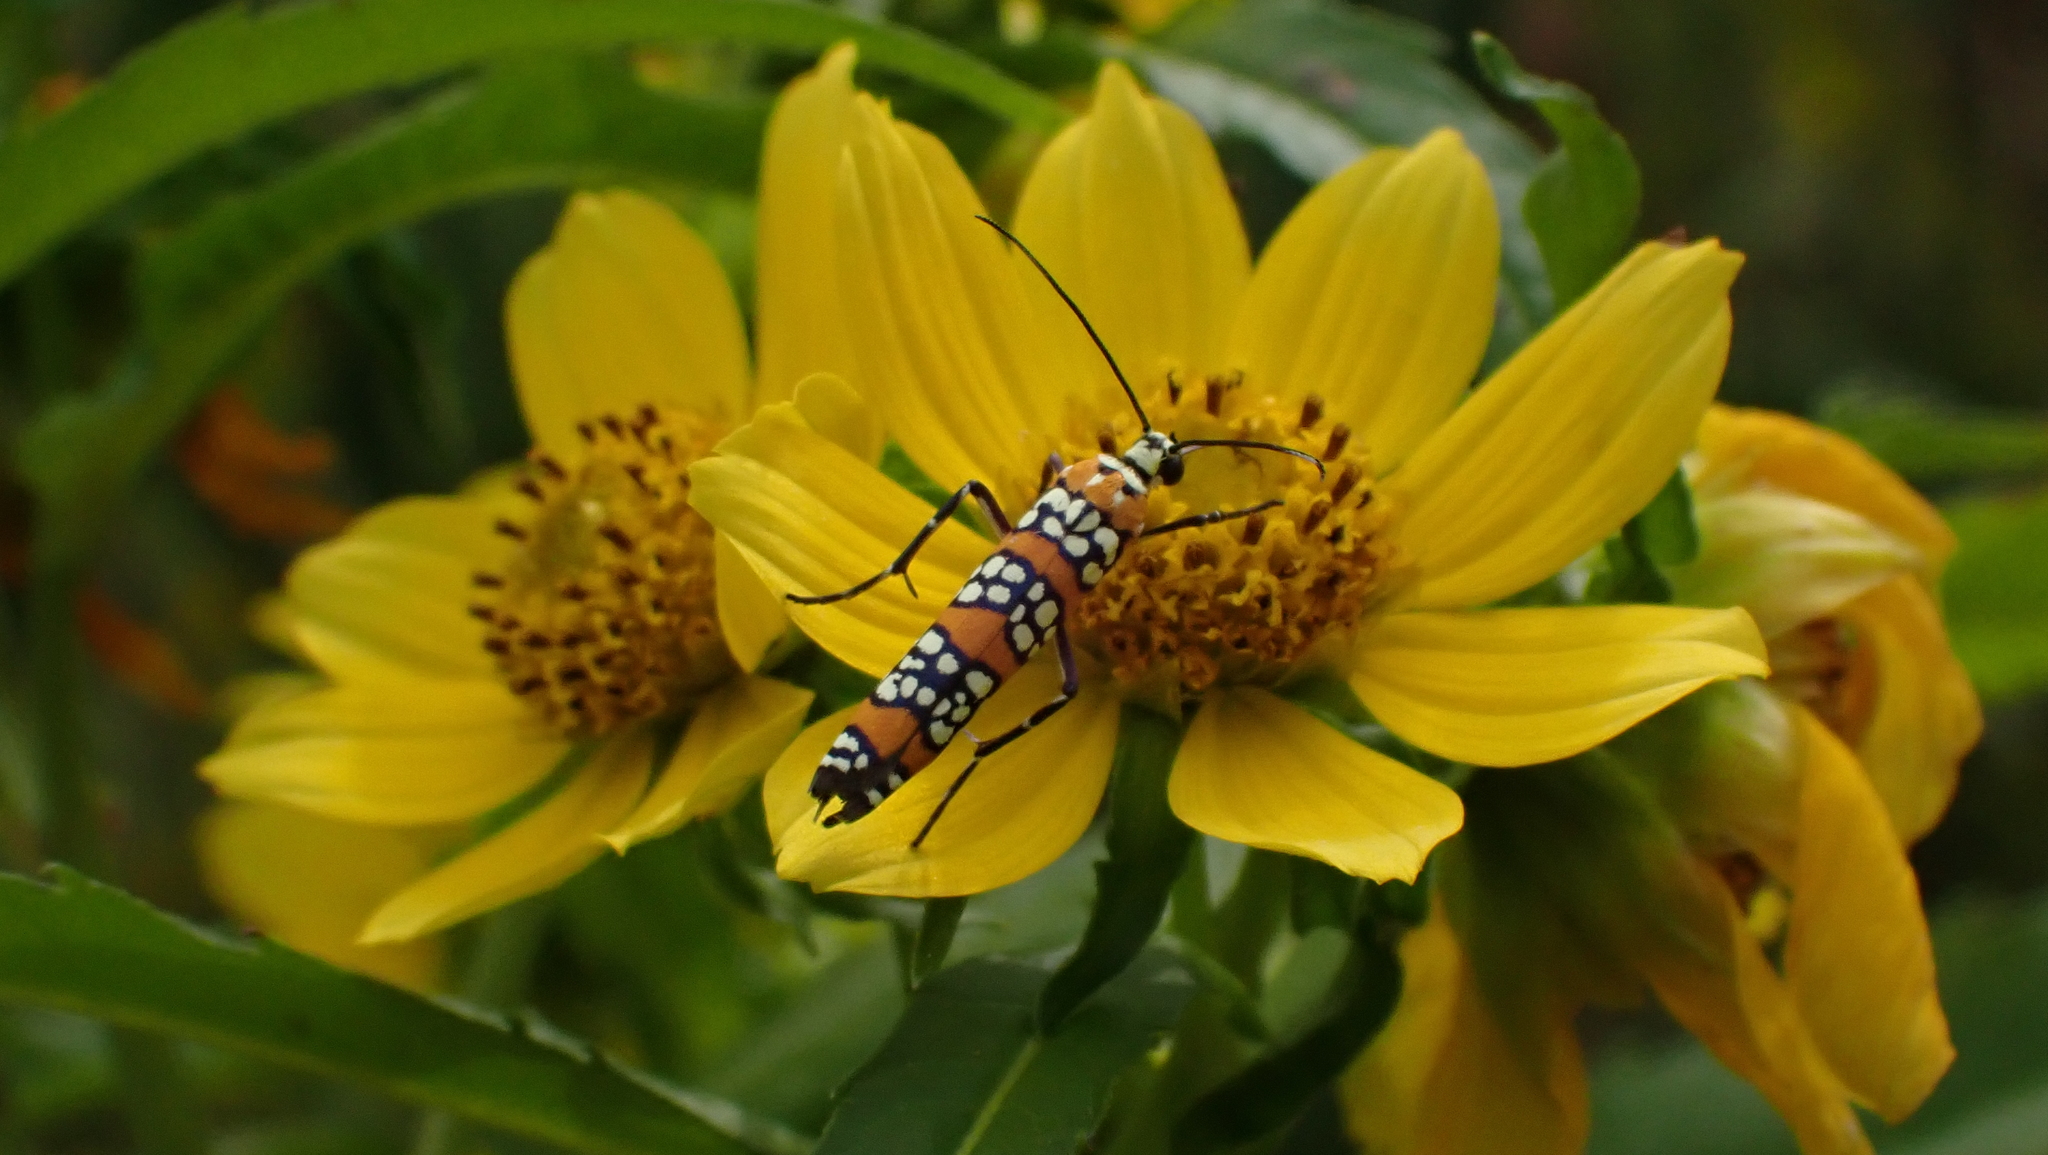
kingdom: Animalia
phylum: Arthropoda
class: Insecta
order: Lepidoptera
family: Attevidae
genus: Atteva
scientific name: Atteva punctella
